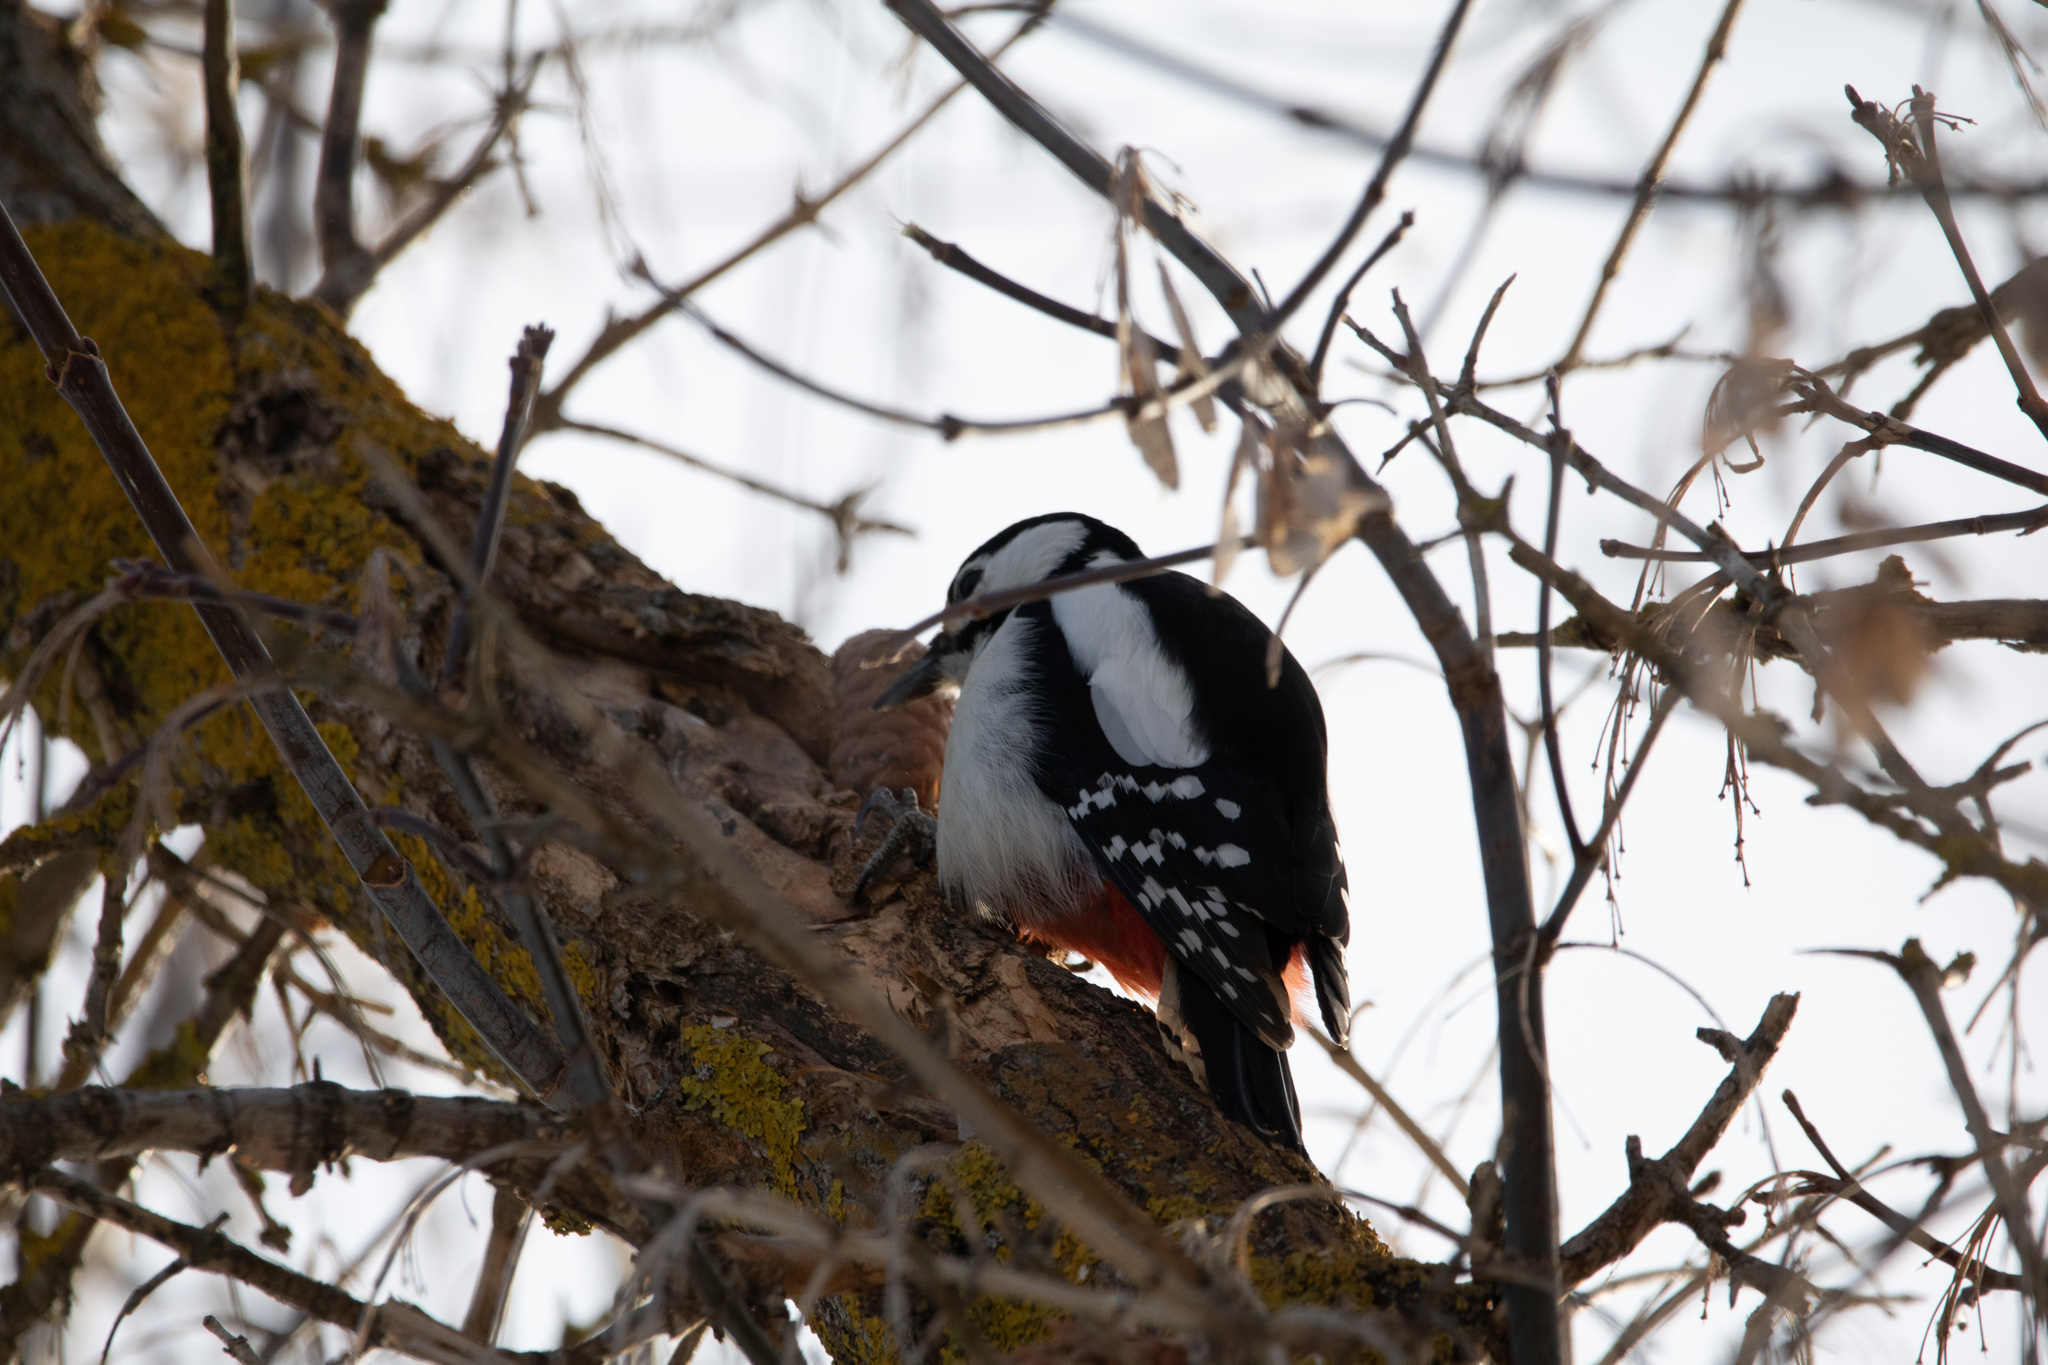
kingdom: Animalia
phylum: Chordata
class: Aves
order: Piciformes
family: Picidae
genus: Dendrocopos
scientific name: Dendrocopos major
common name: Great spotted woodpecker
